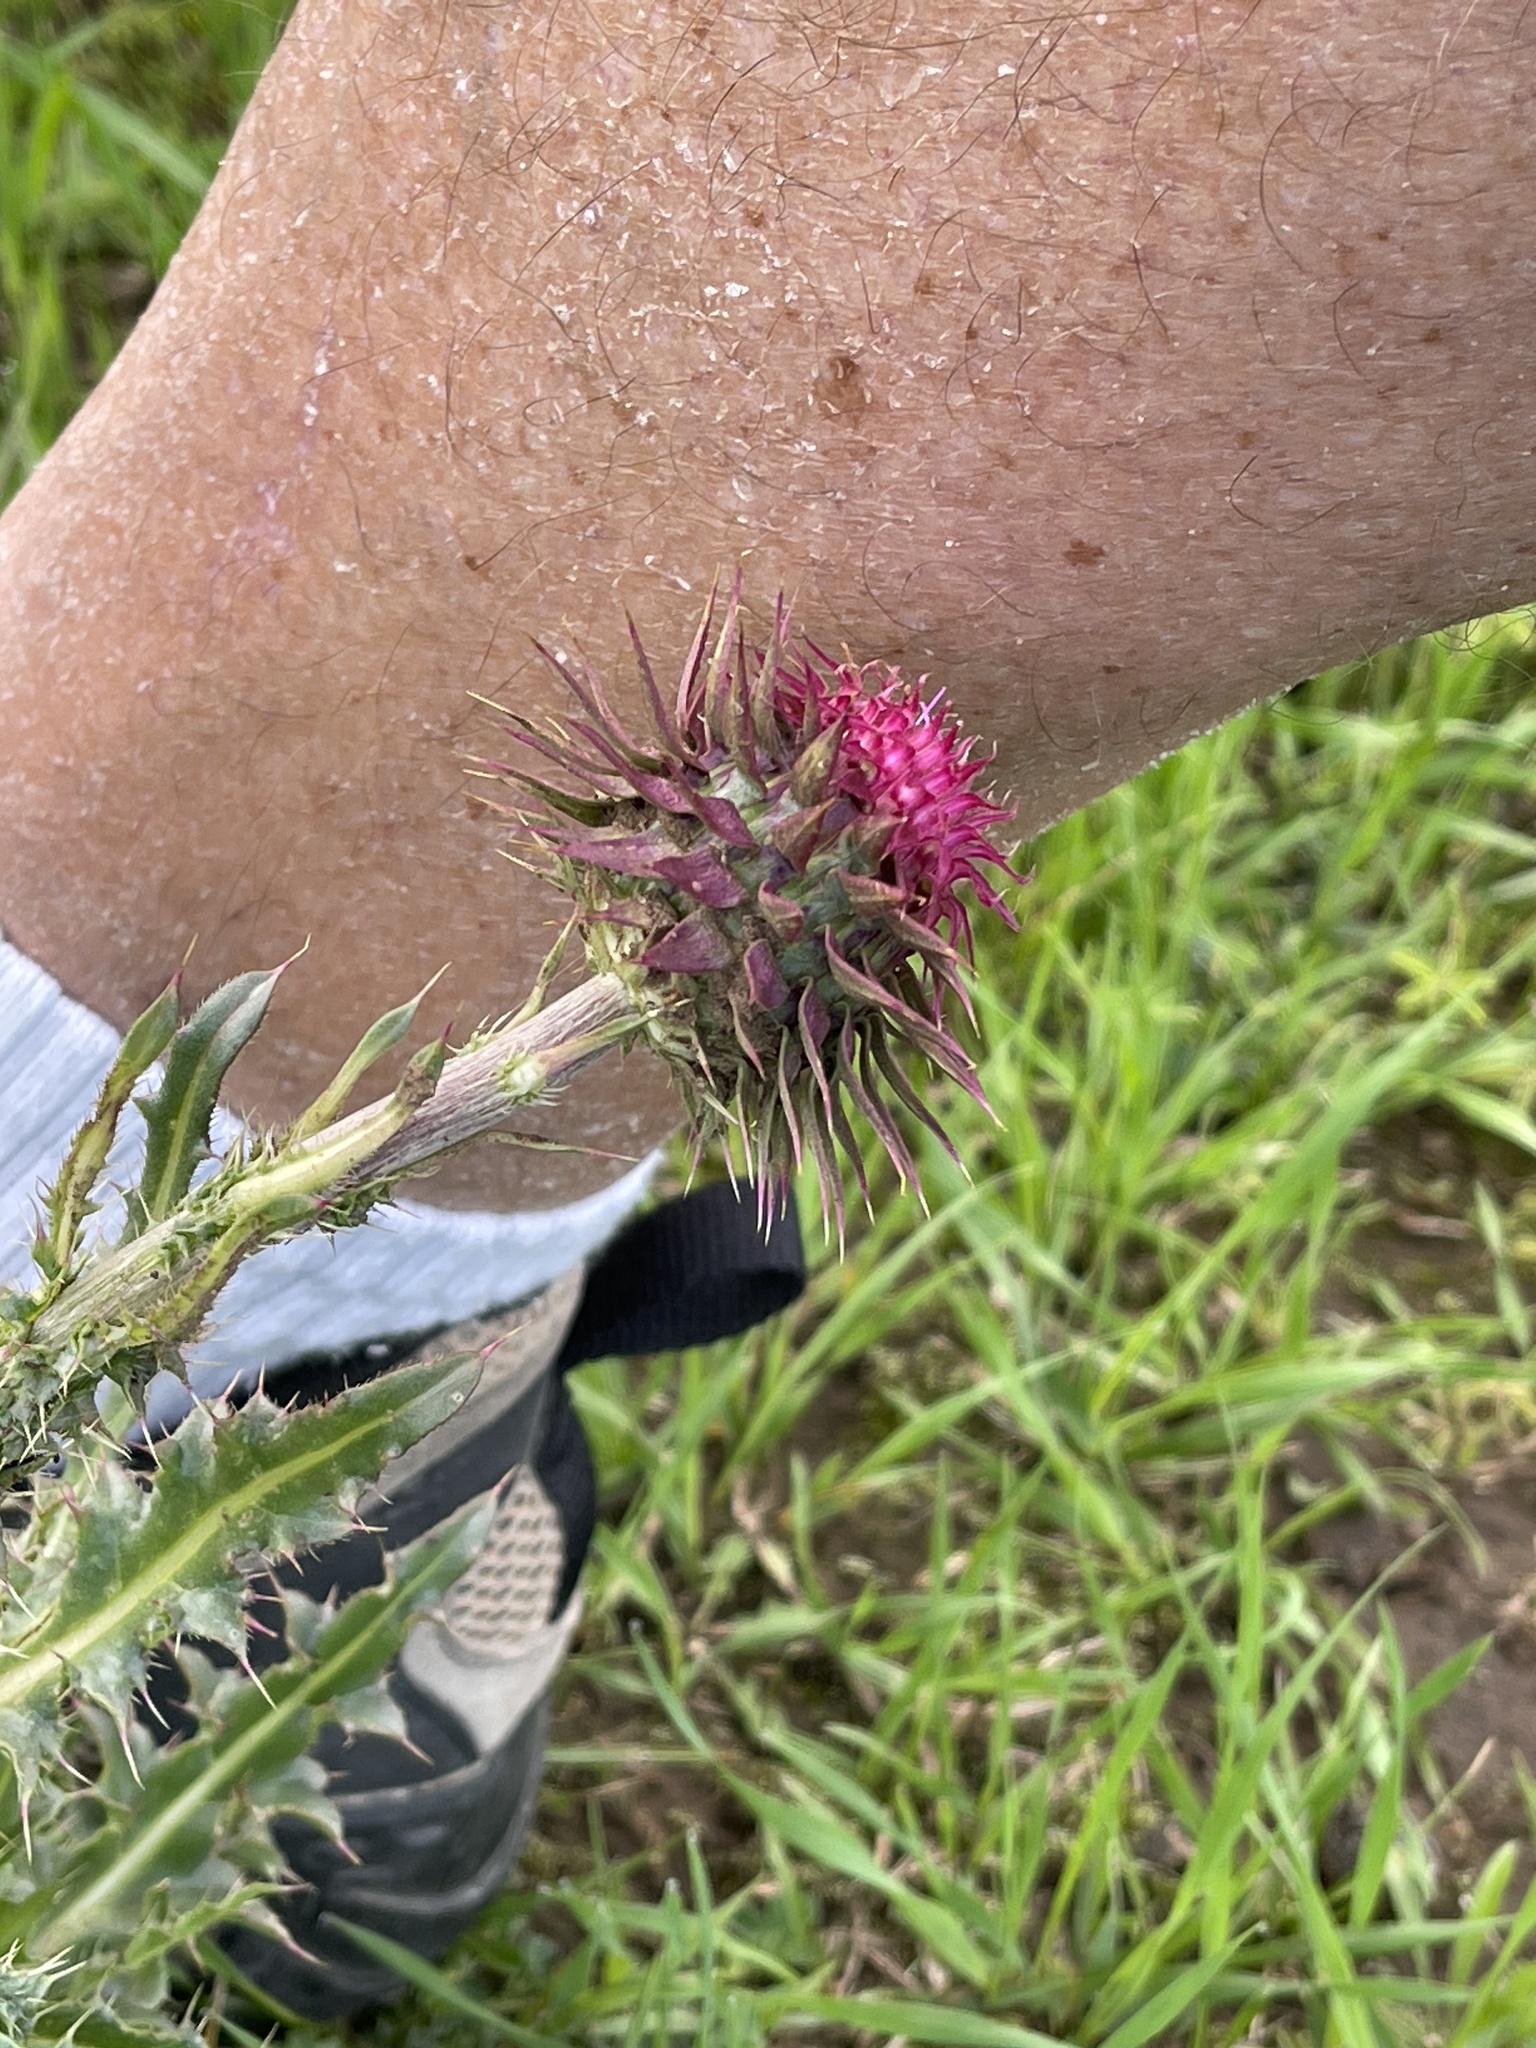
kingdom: Plantae
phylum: Tracheophyta
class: Magnoliopsida
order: Asterales
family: Asteraceae
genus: Carduus
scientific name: Carduus nutans
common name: Musk thistle
